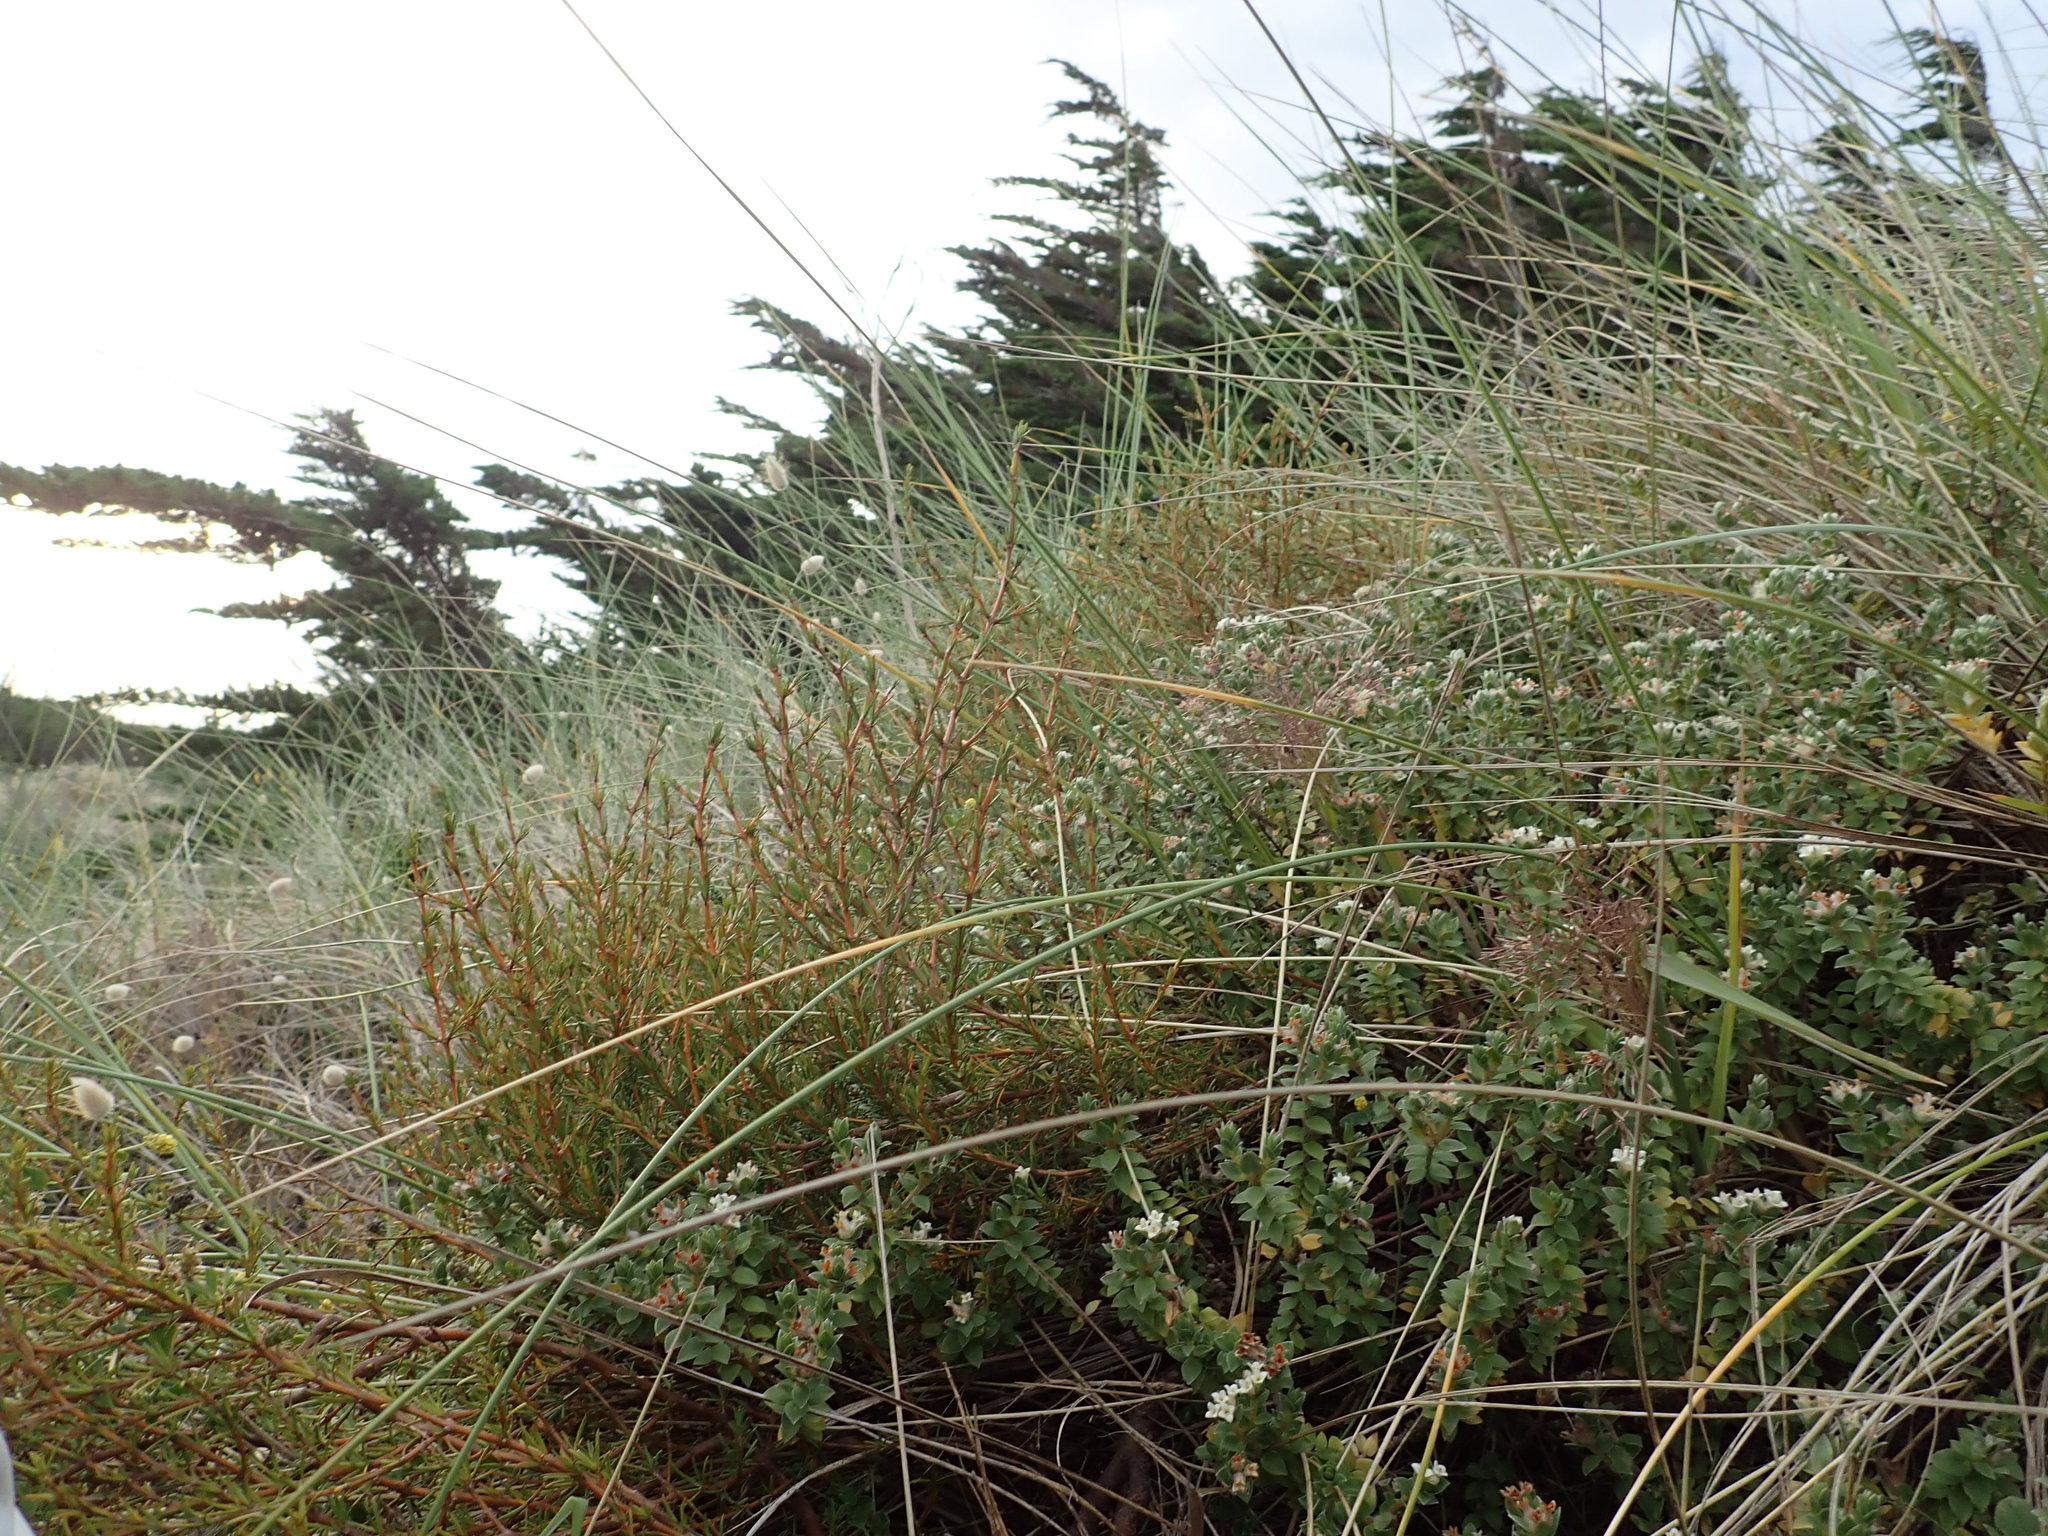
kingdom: Plantae
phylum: Tracheophyta
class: Magnoliopsida
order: Gentianales
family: Rubiaceae
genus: Coprosma
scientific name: Coprosma acerosa
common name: Sand coprosma
